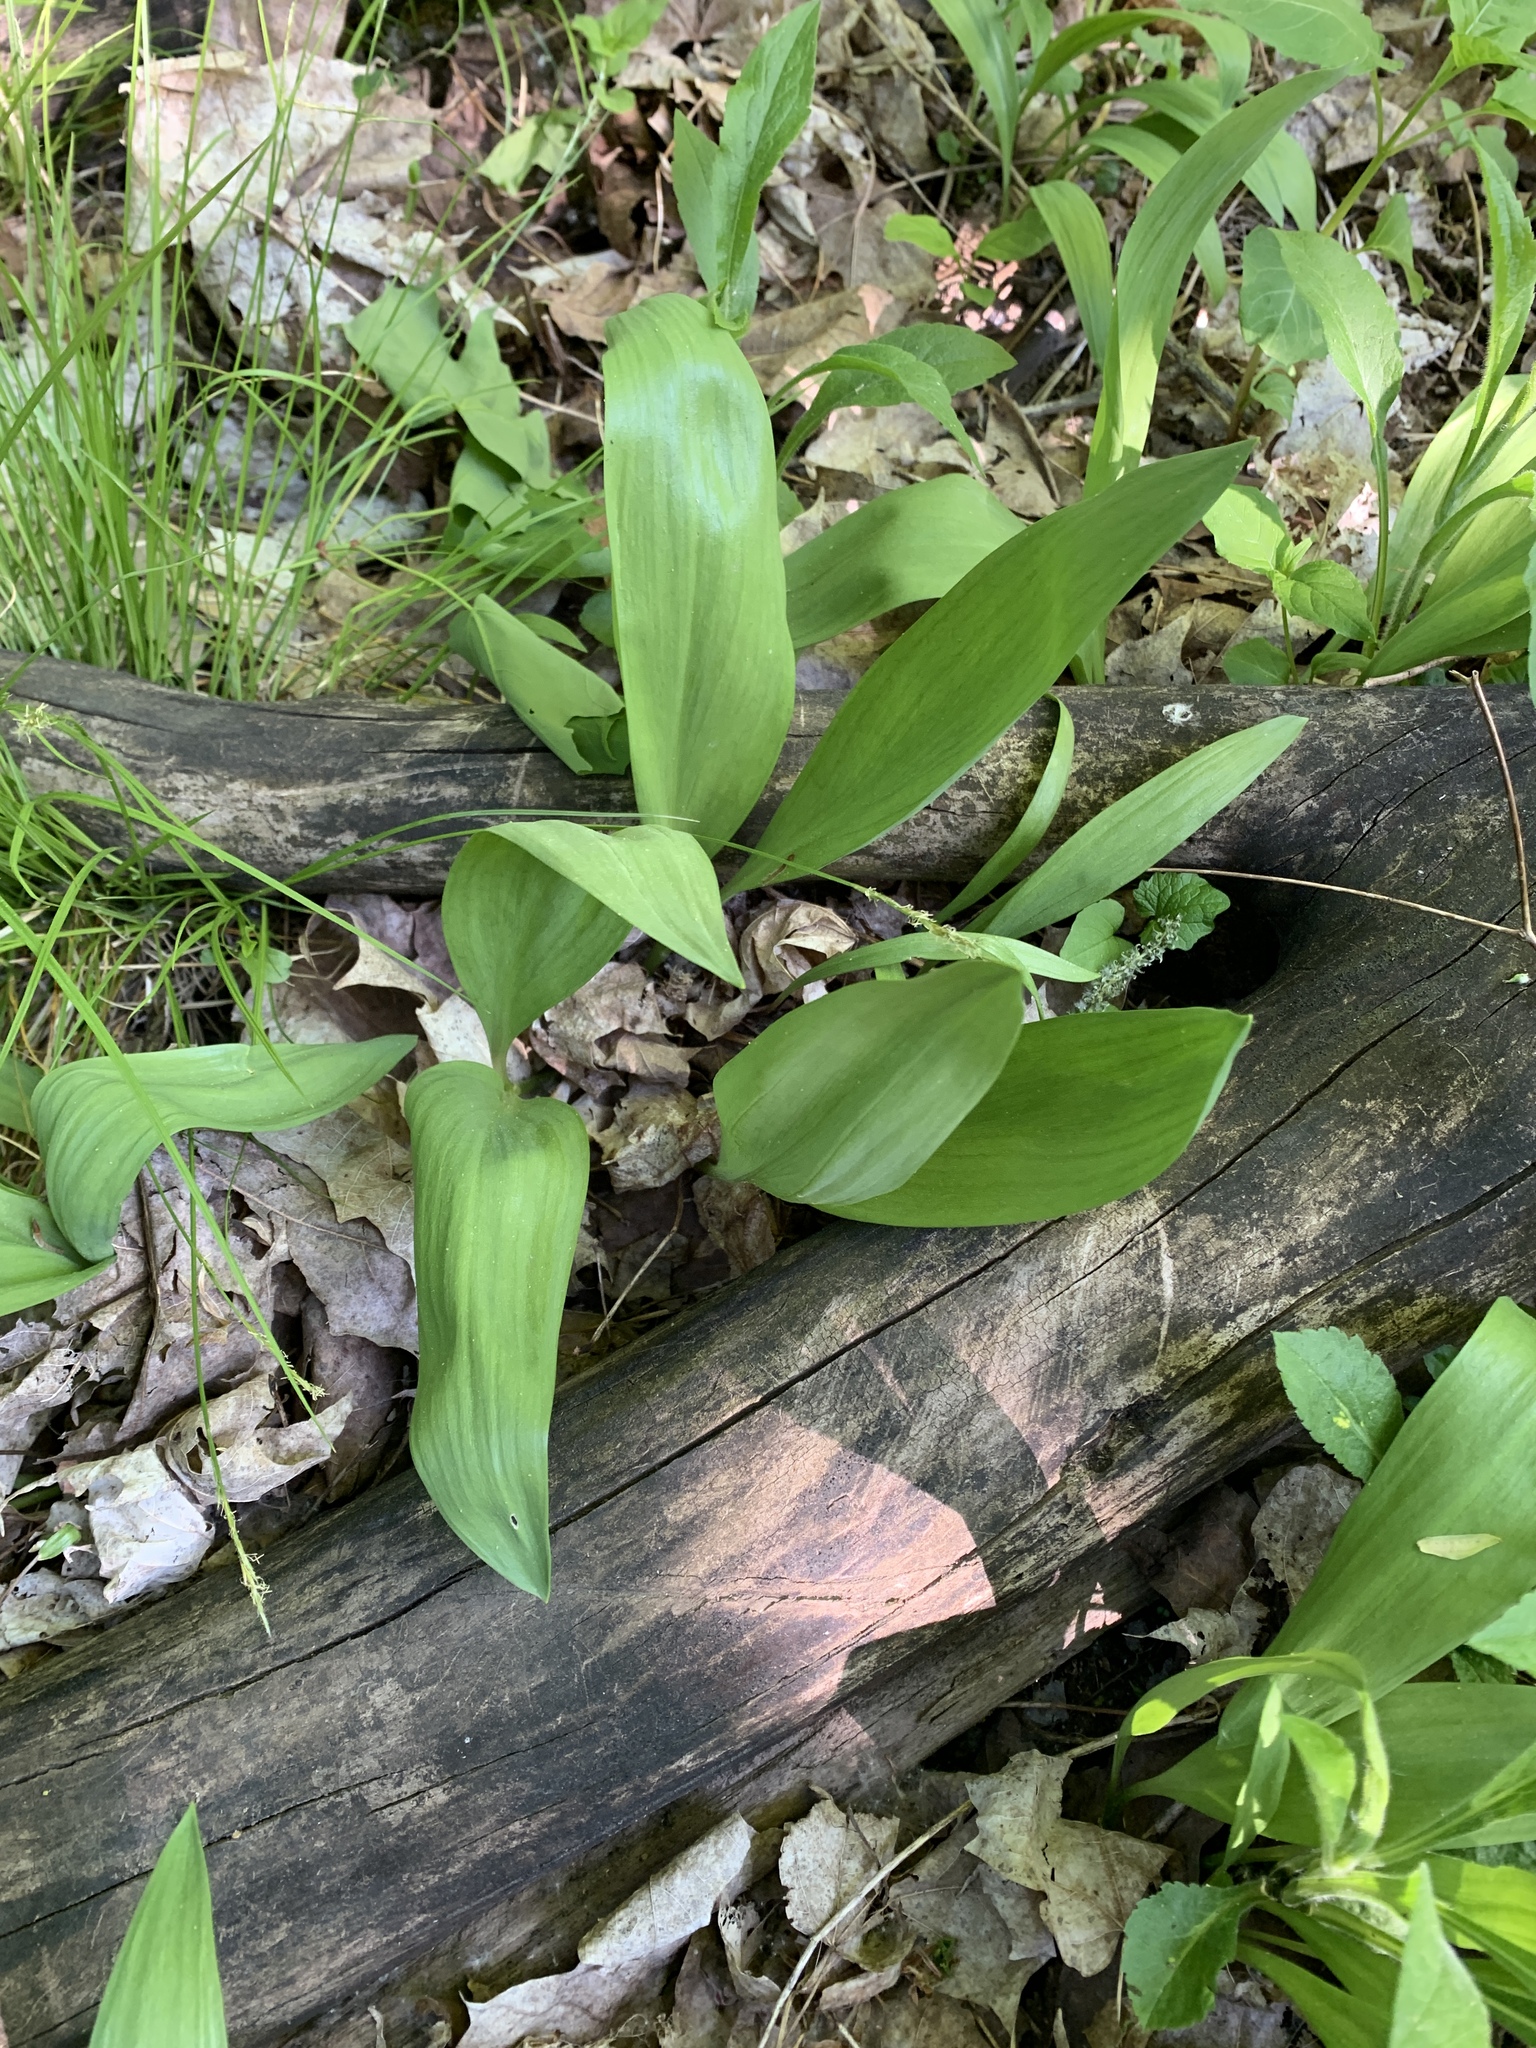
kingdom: Plantae
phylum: Tracheophyta
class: Liliopsida
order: Asparagales
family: Amaryllidaceae
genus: Allium
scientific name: Allium tricoccum
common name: Ramp
